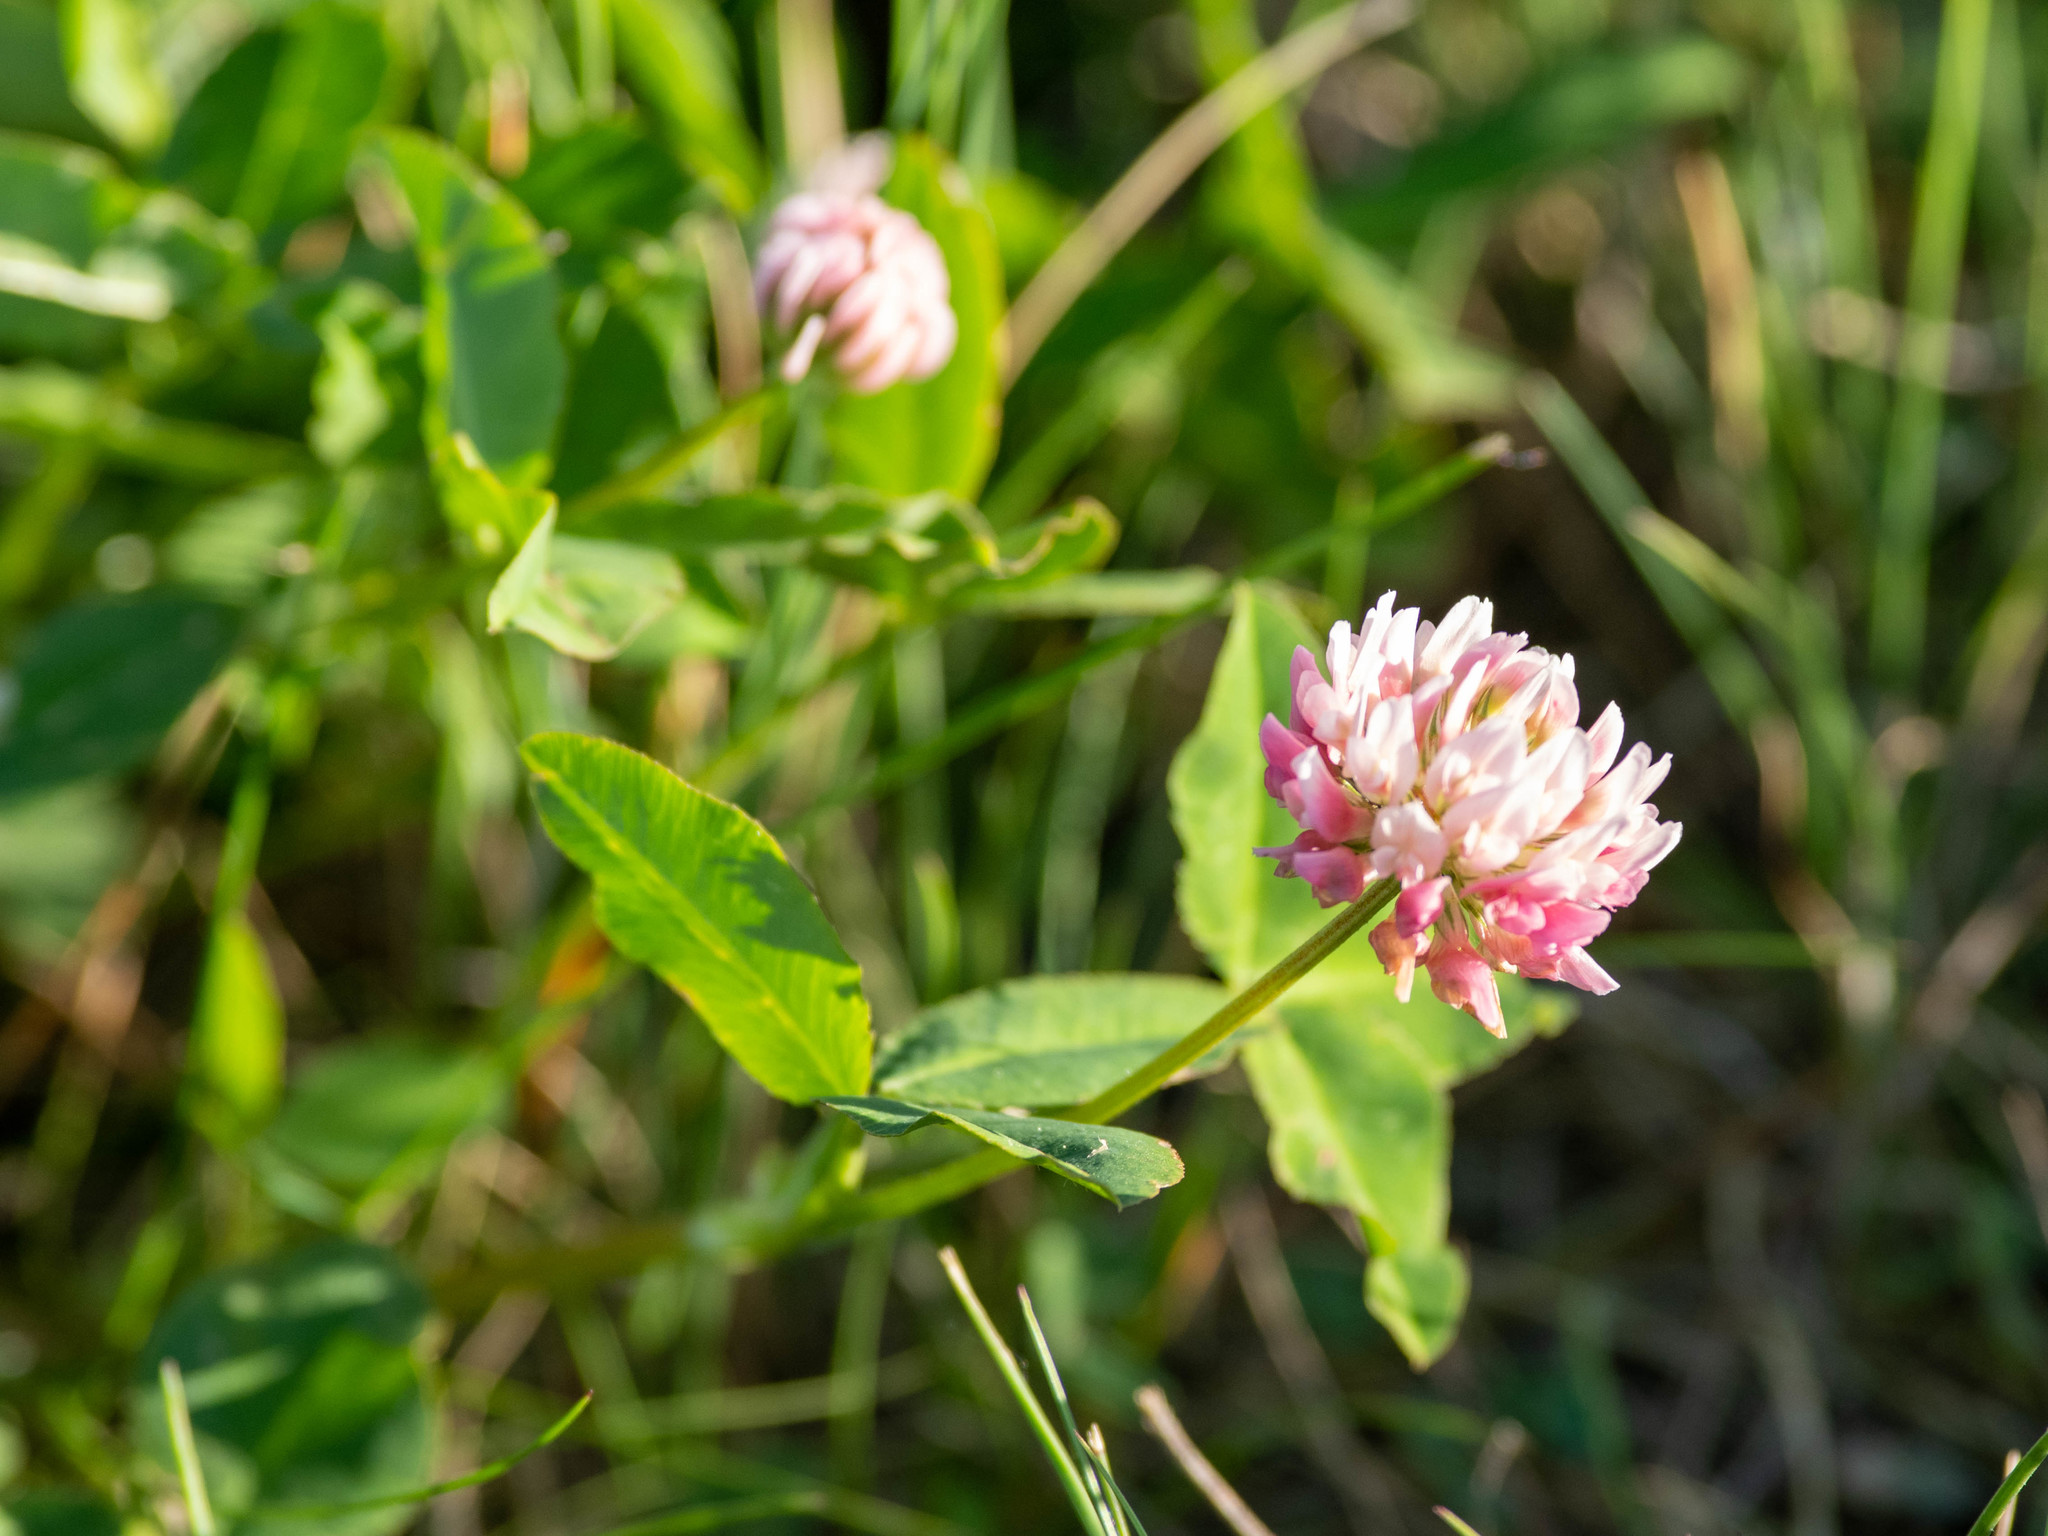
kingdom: Plantae
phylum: Tracheophyta
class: Magnoliopsida
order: Fabales
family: Fabaceae
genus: Trifolium
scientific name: Trifolium hybridum
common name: Alsike clover
